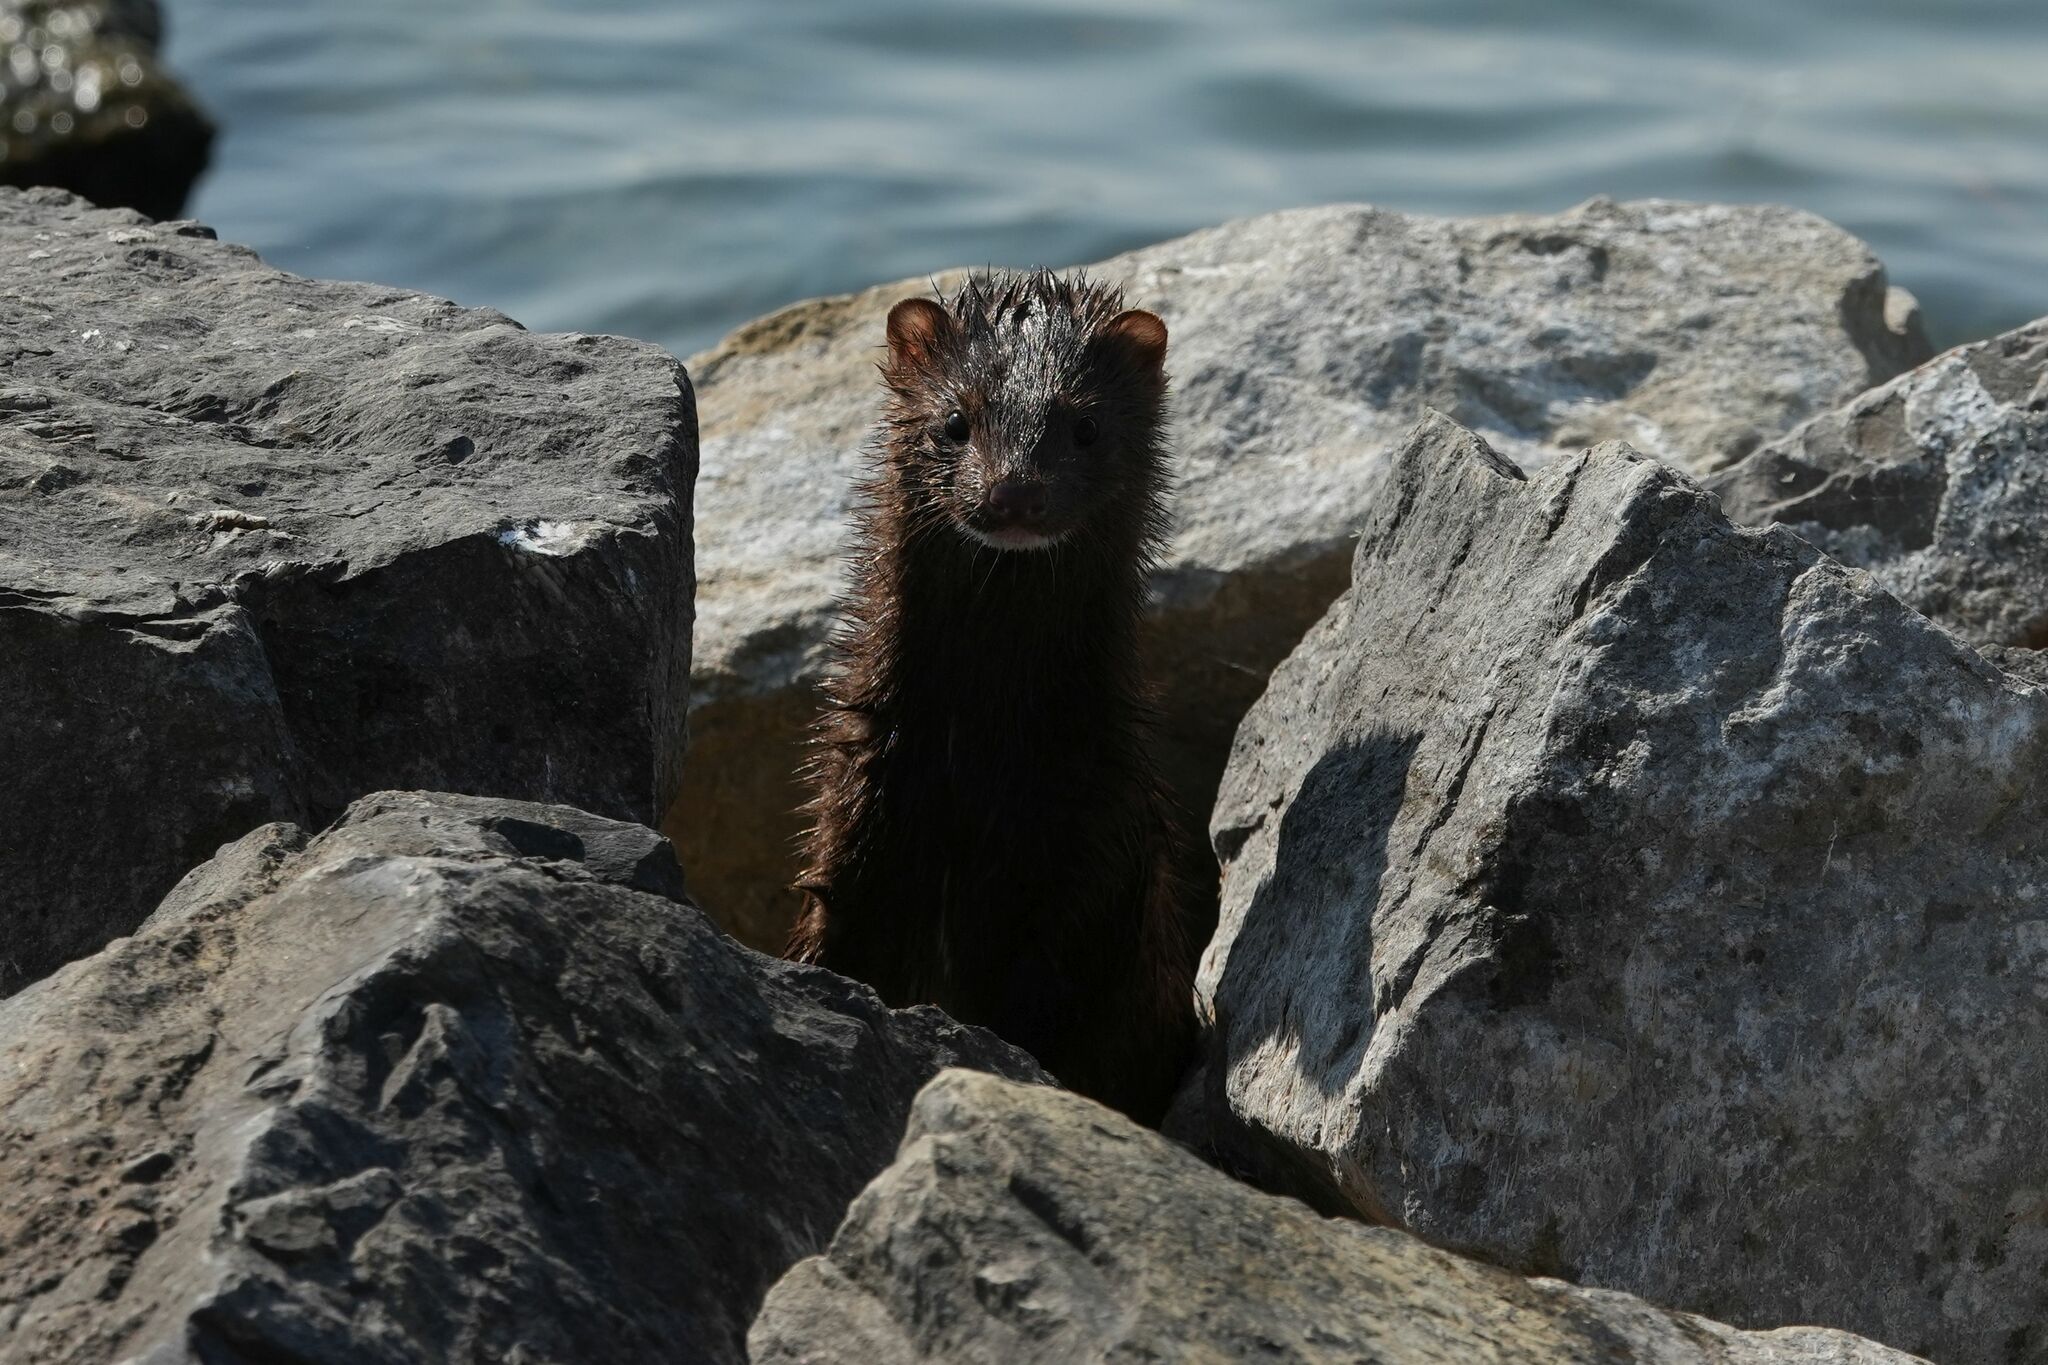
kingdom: Animalia
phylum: Chordata
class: Mammalia
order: Carnivora
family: Mustelidae
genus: Mustela
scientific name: Mustela
